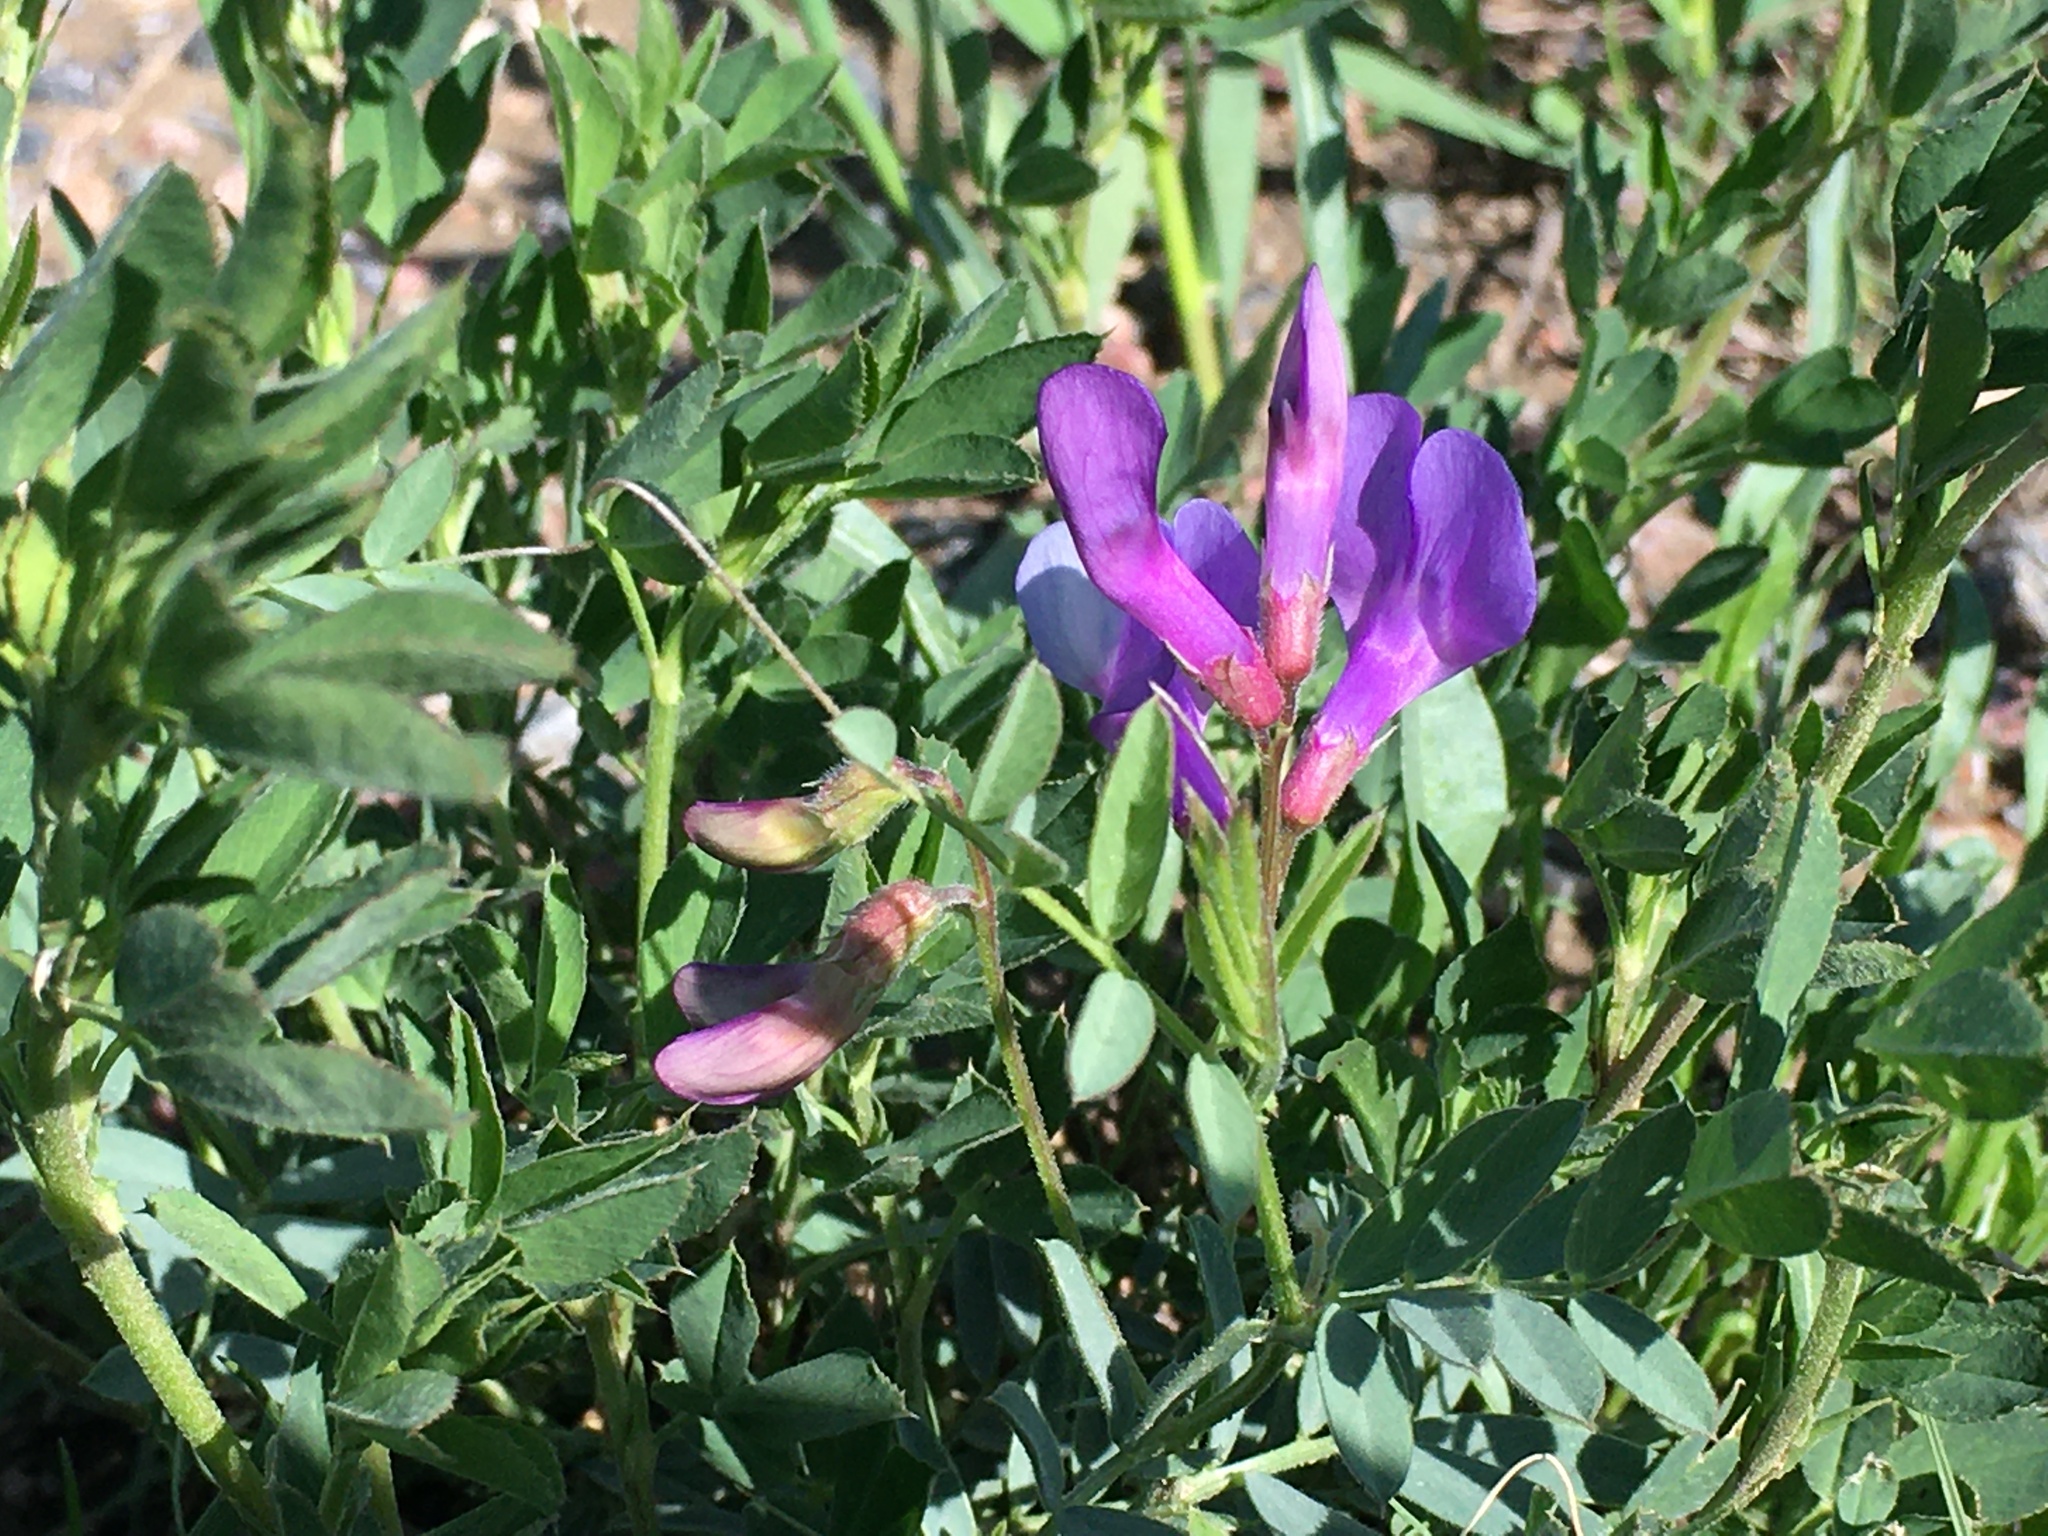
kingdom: Plantae
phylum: Tracheophyta
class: Magnoliopsida
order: Fabales
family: Fabaceae
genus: Vicia
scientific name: Vicia americana
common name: American vetch
